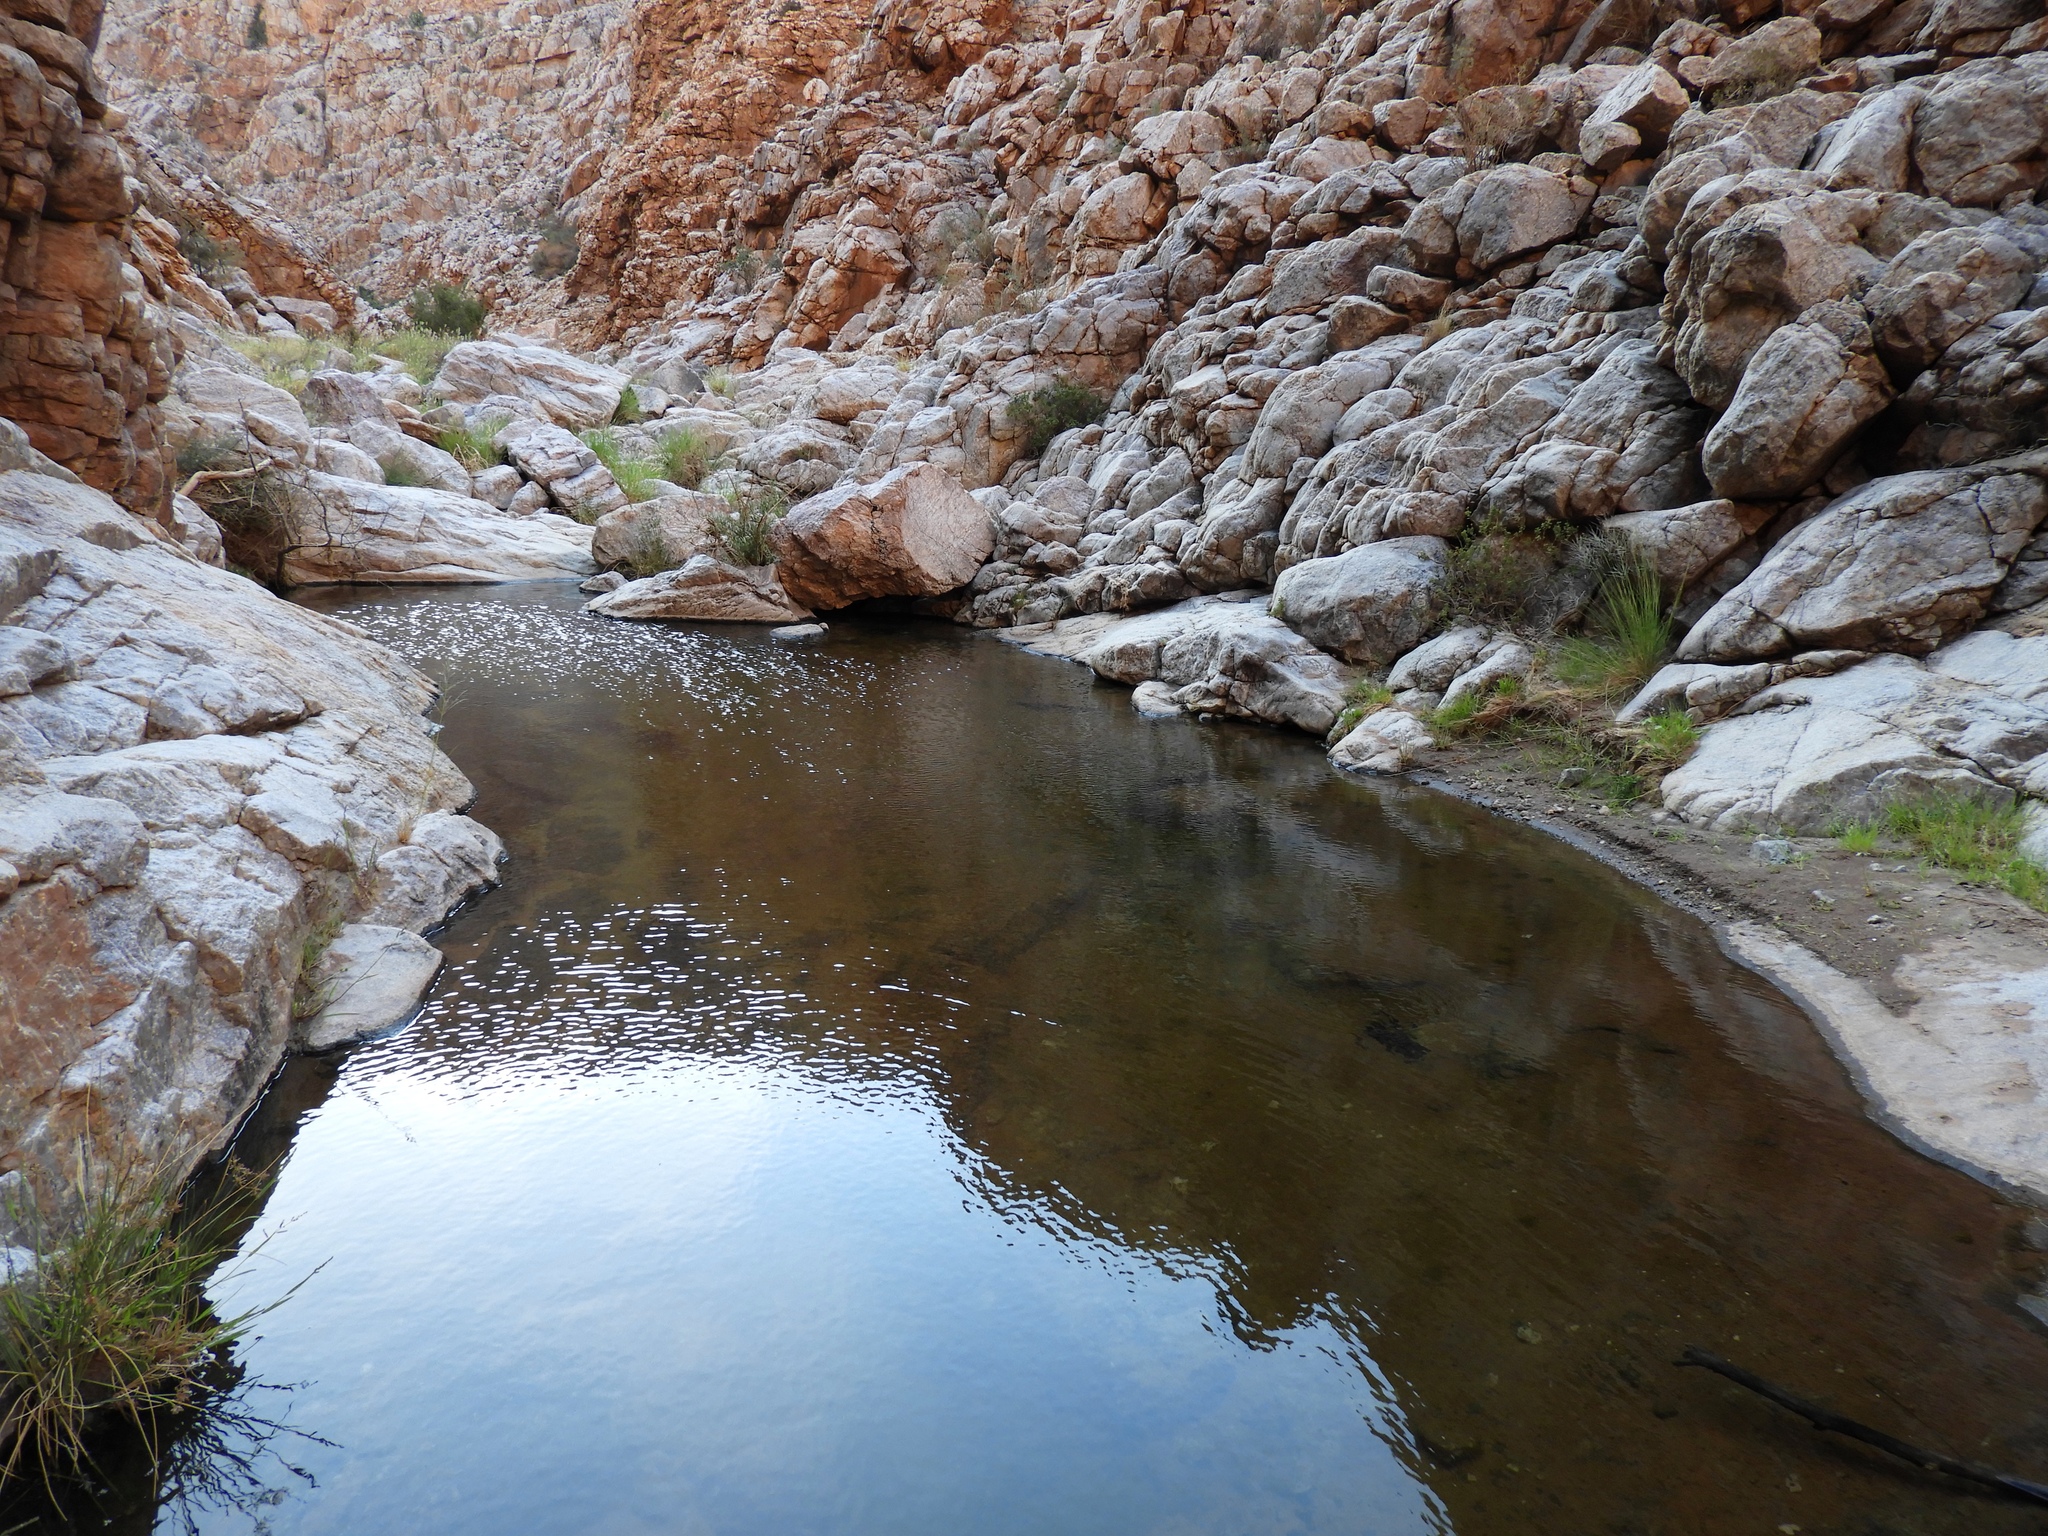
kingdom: Animalia
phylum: Chordata
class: Amphibia
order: Anura
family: Microhylidae
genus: Phrynomantis
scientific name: Phrynomantis annectens
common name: Marbled rubber frog
